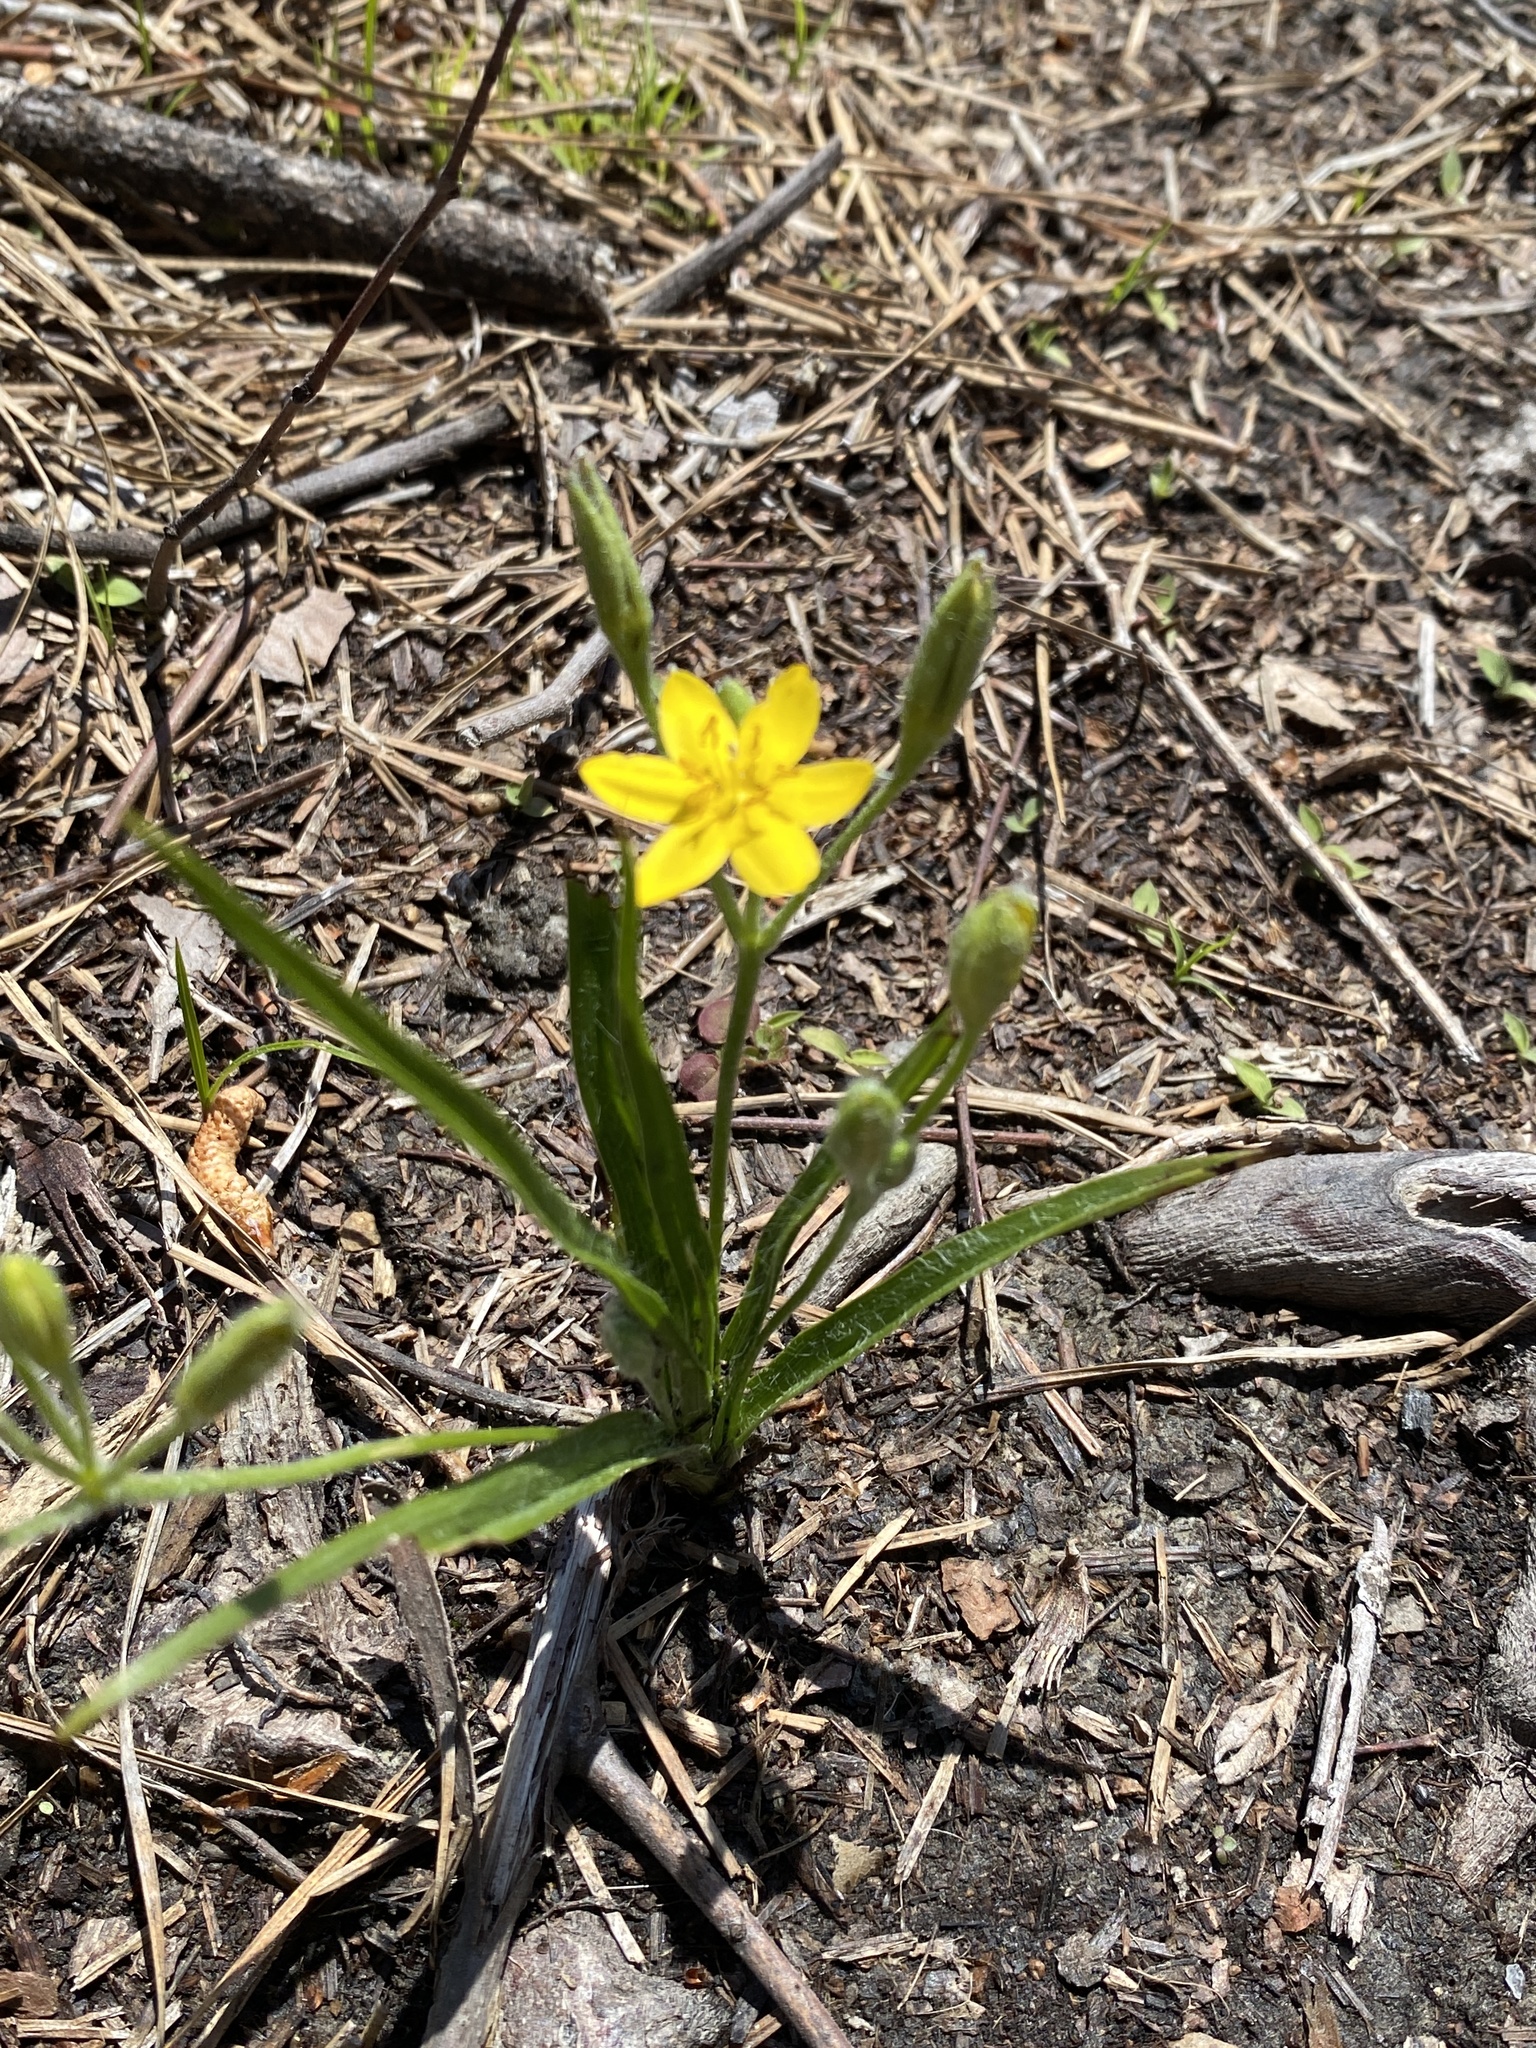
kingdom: Plantae
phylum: Tracheophyta
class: Liliopsida
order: Asparagales
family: Hypoxidaceae
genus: Hypoxis
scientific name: Hypoxis hirsuta
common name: Common goldstar
